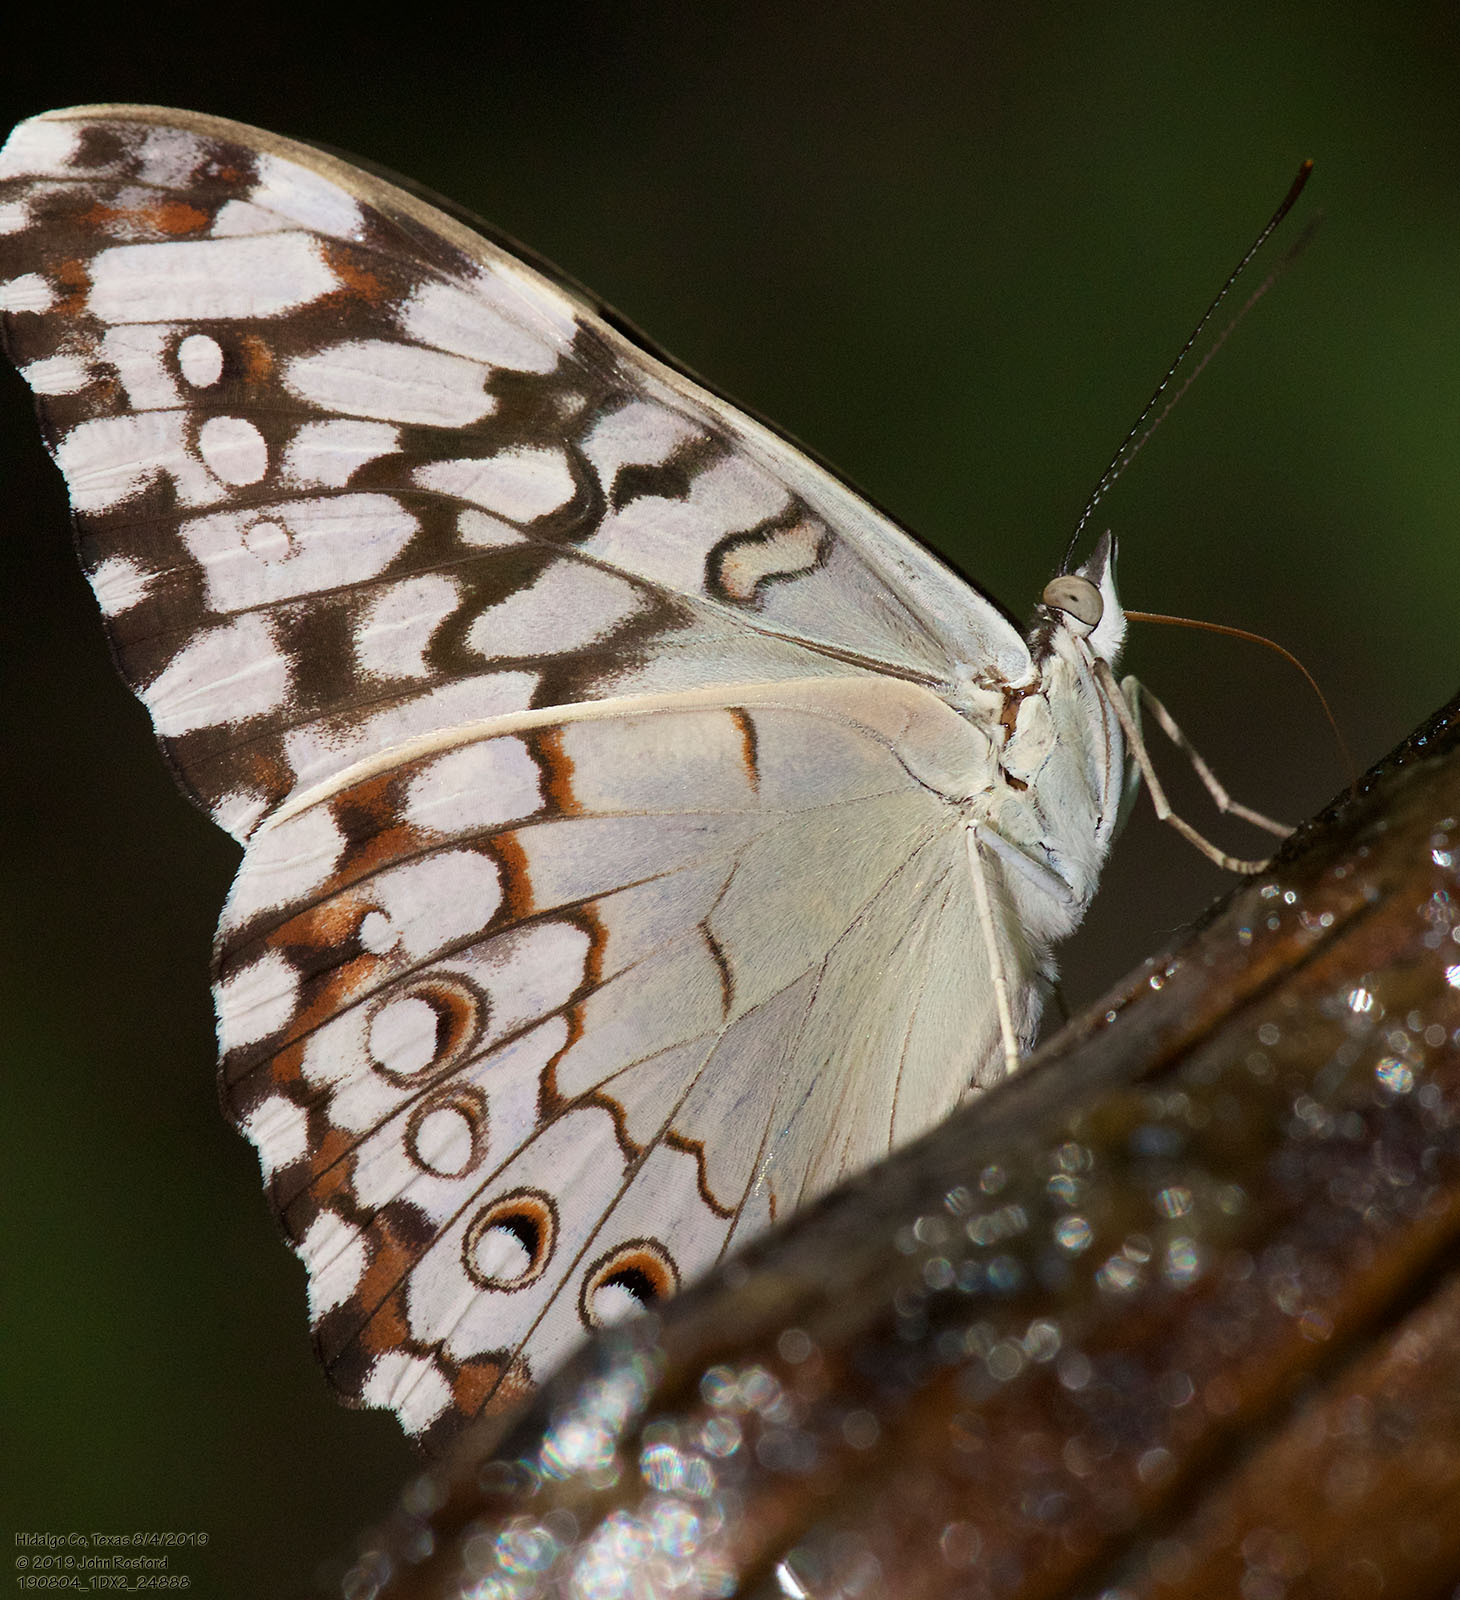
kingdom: Animalia
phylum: Arthropoda
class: Insecta
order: Lepidoptera
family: Nymphalidae
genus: Hamadryas
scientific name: Hamadryas februa
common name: Gray cracker
